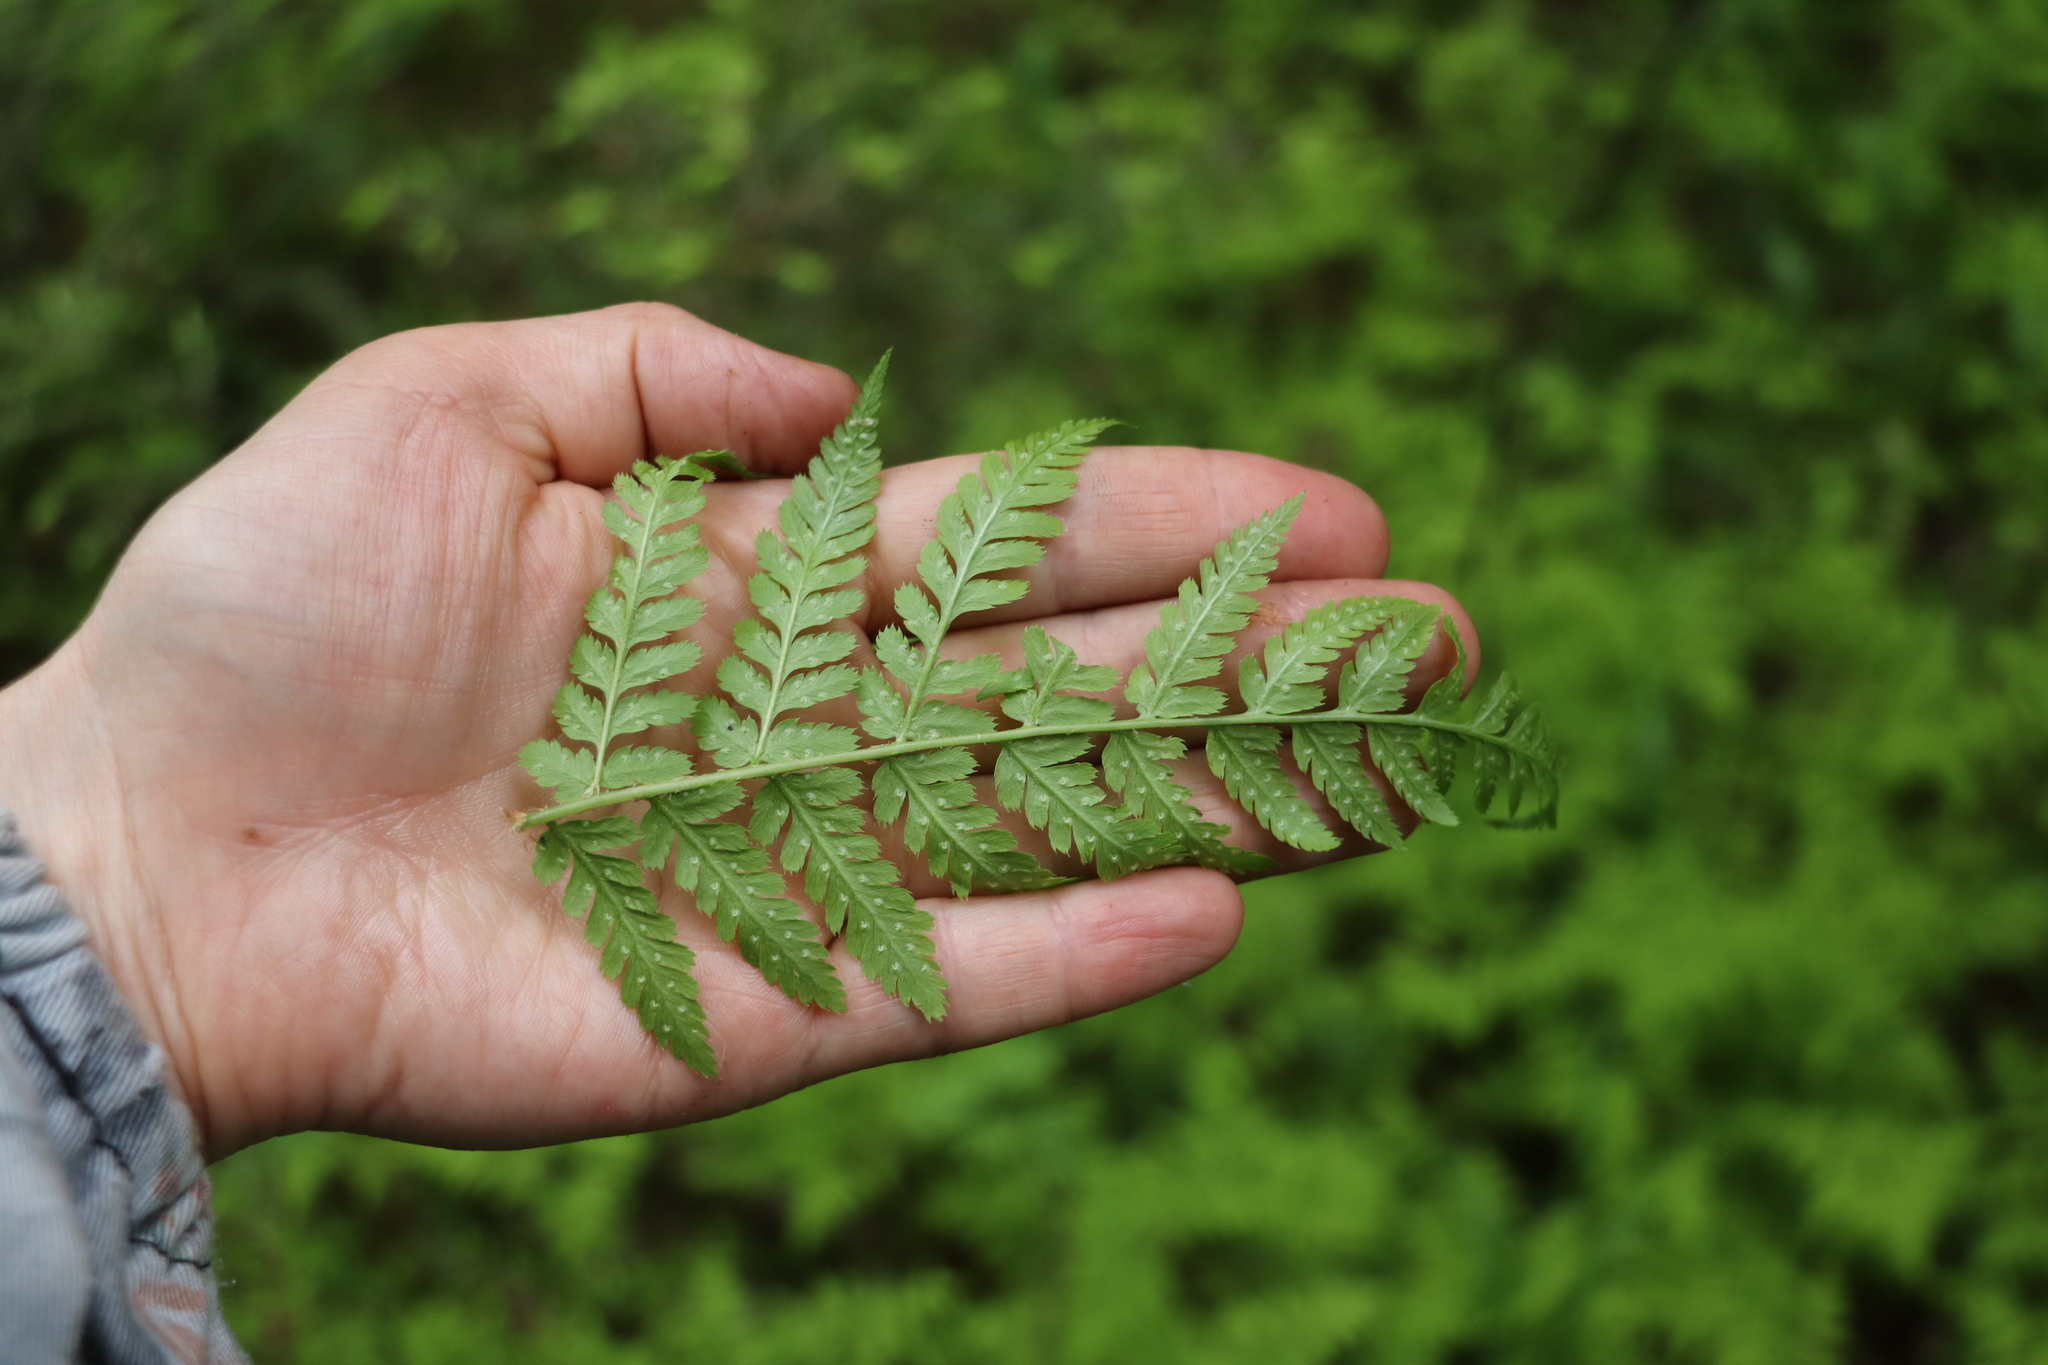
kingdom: Plantae
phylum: Tracheophyta
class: Polypodiopsida
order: Polypodiales
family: Dryopteridaceae
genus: Dryopteris
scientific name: Dryopteris expansa
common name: Northern buckler fern
